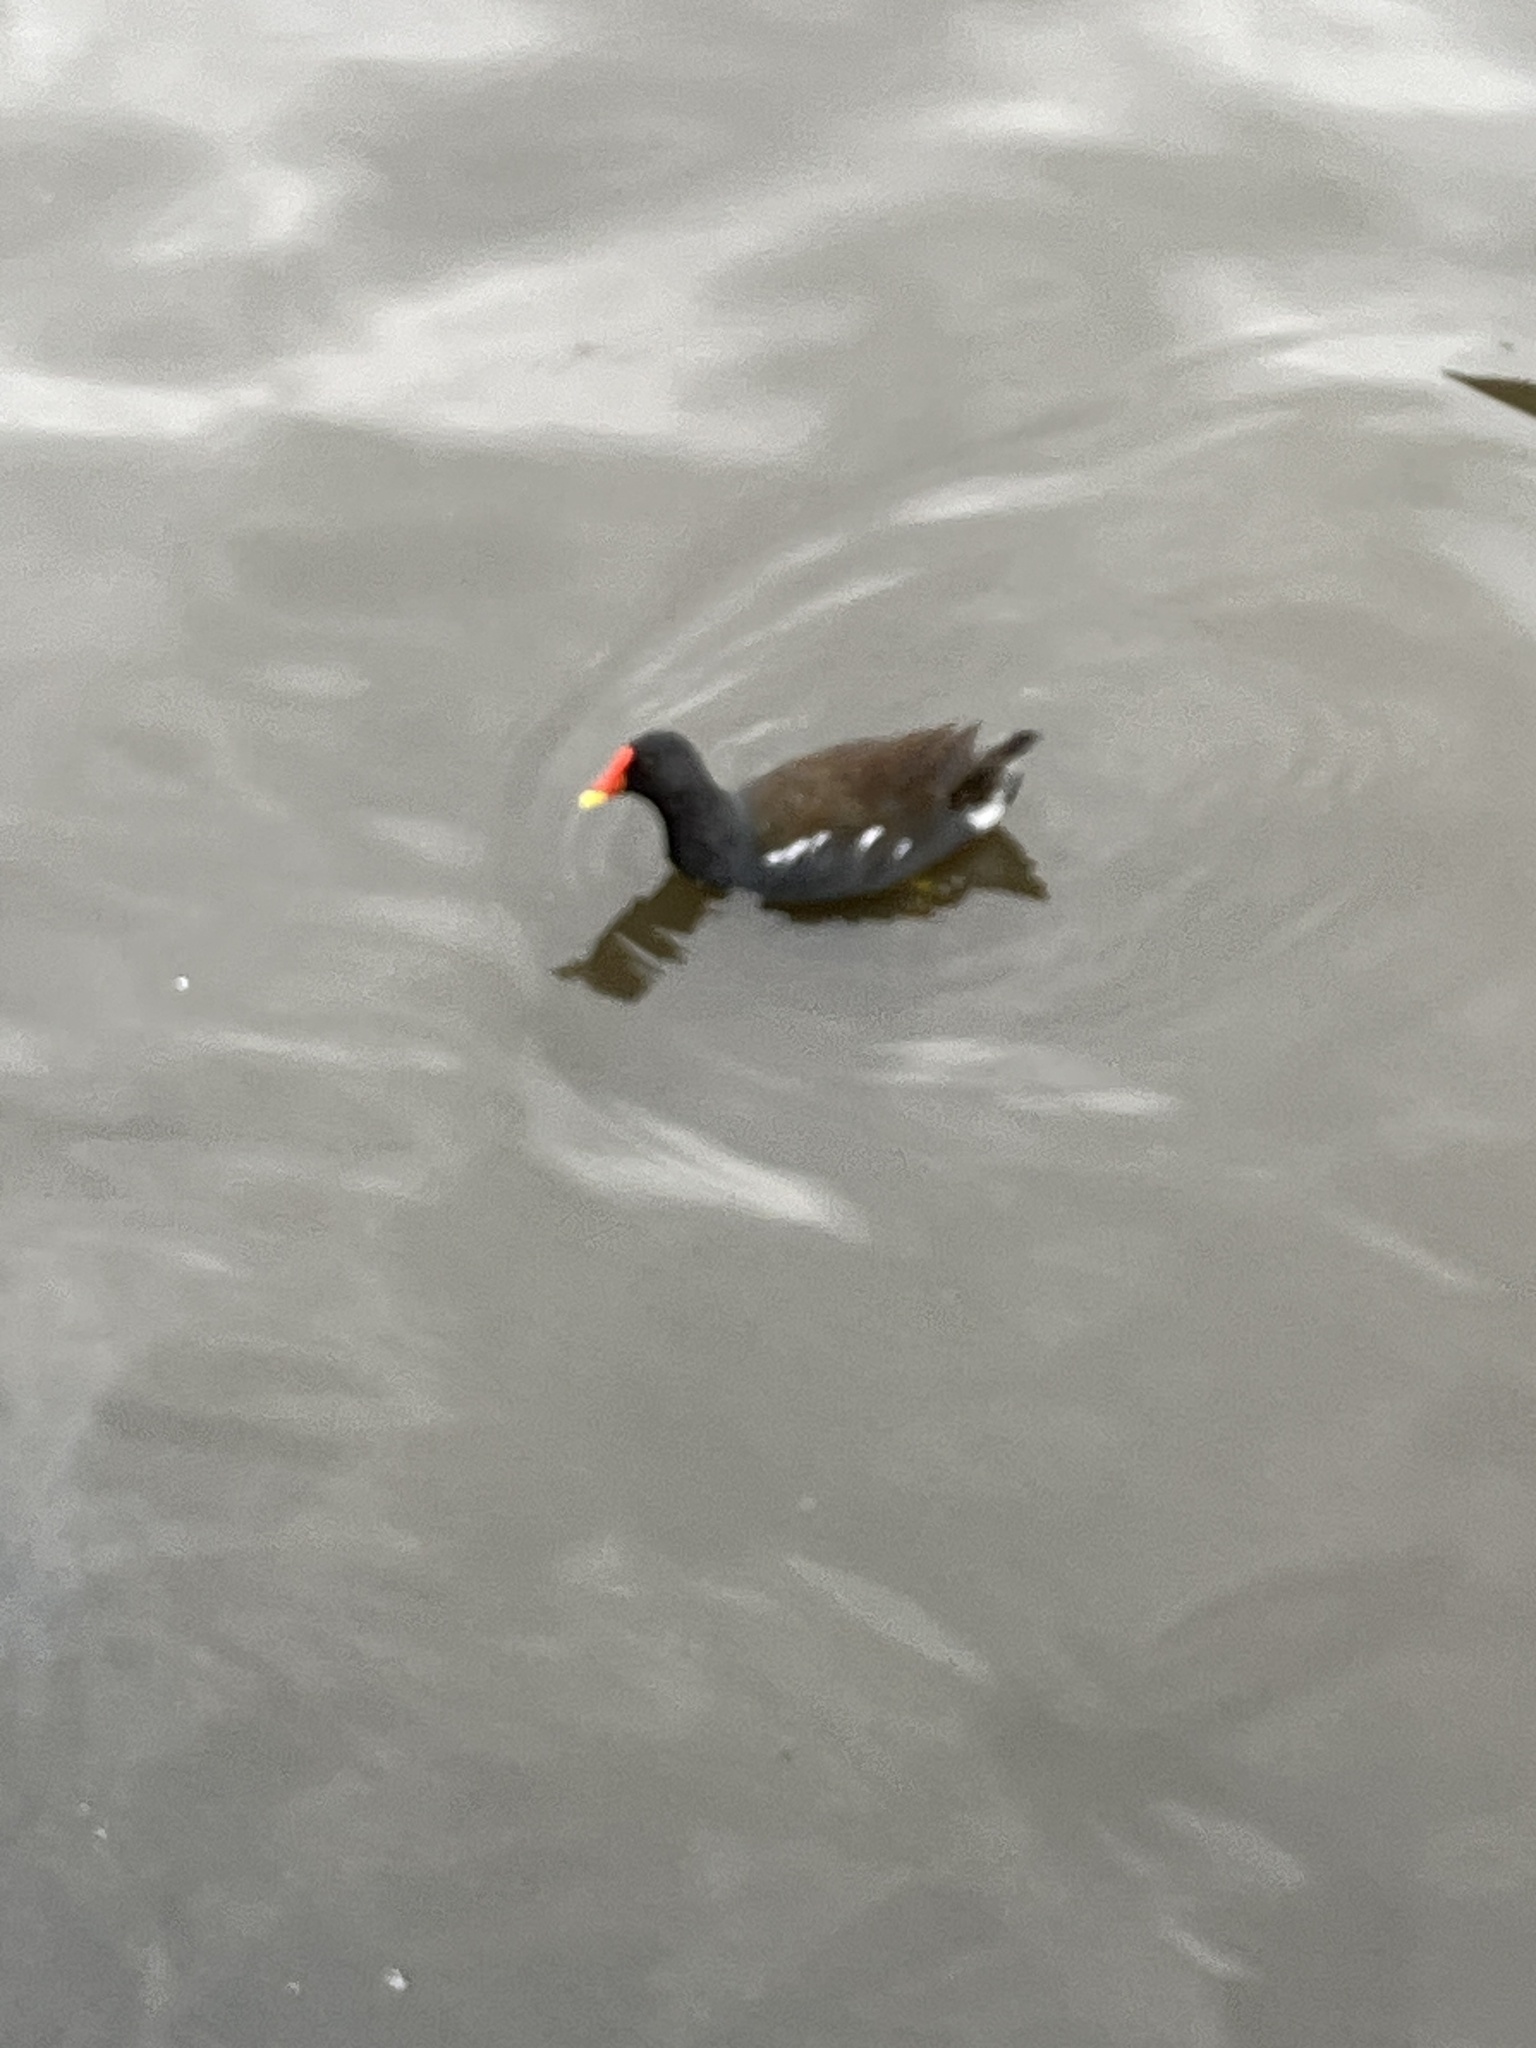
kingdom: Animalia
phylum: Chordata
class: Aves
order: Gruiformes
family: Rallidae
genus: Gallinula
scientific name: Gallinula chloropus
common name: Common moorhen
